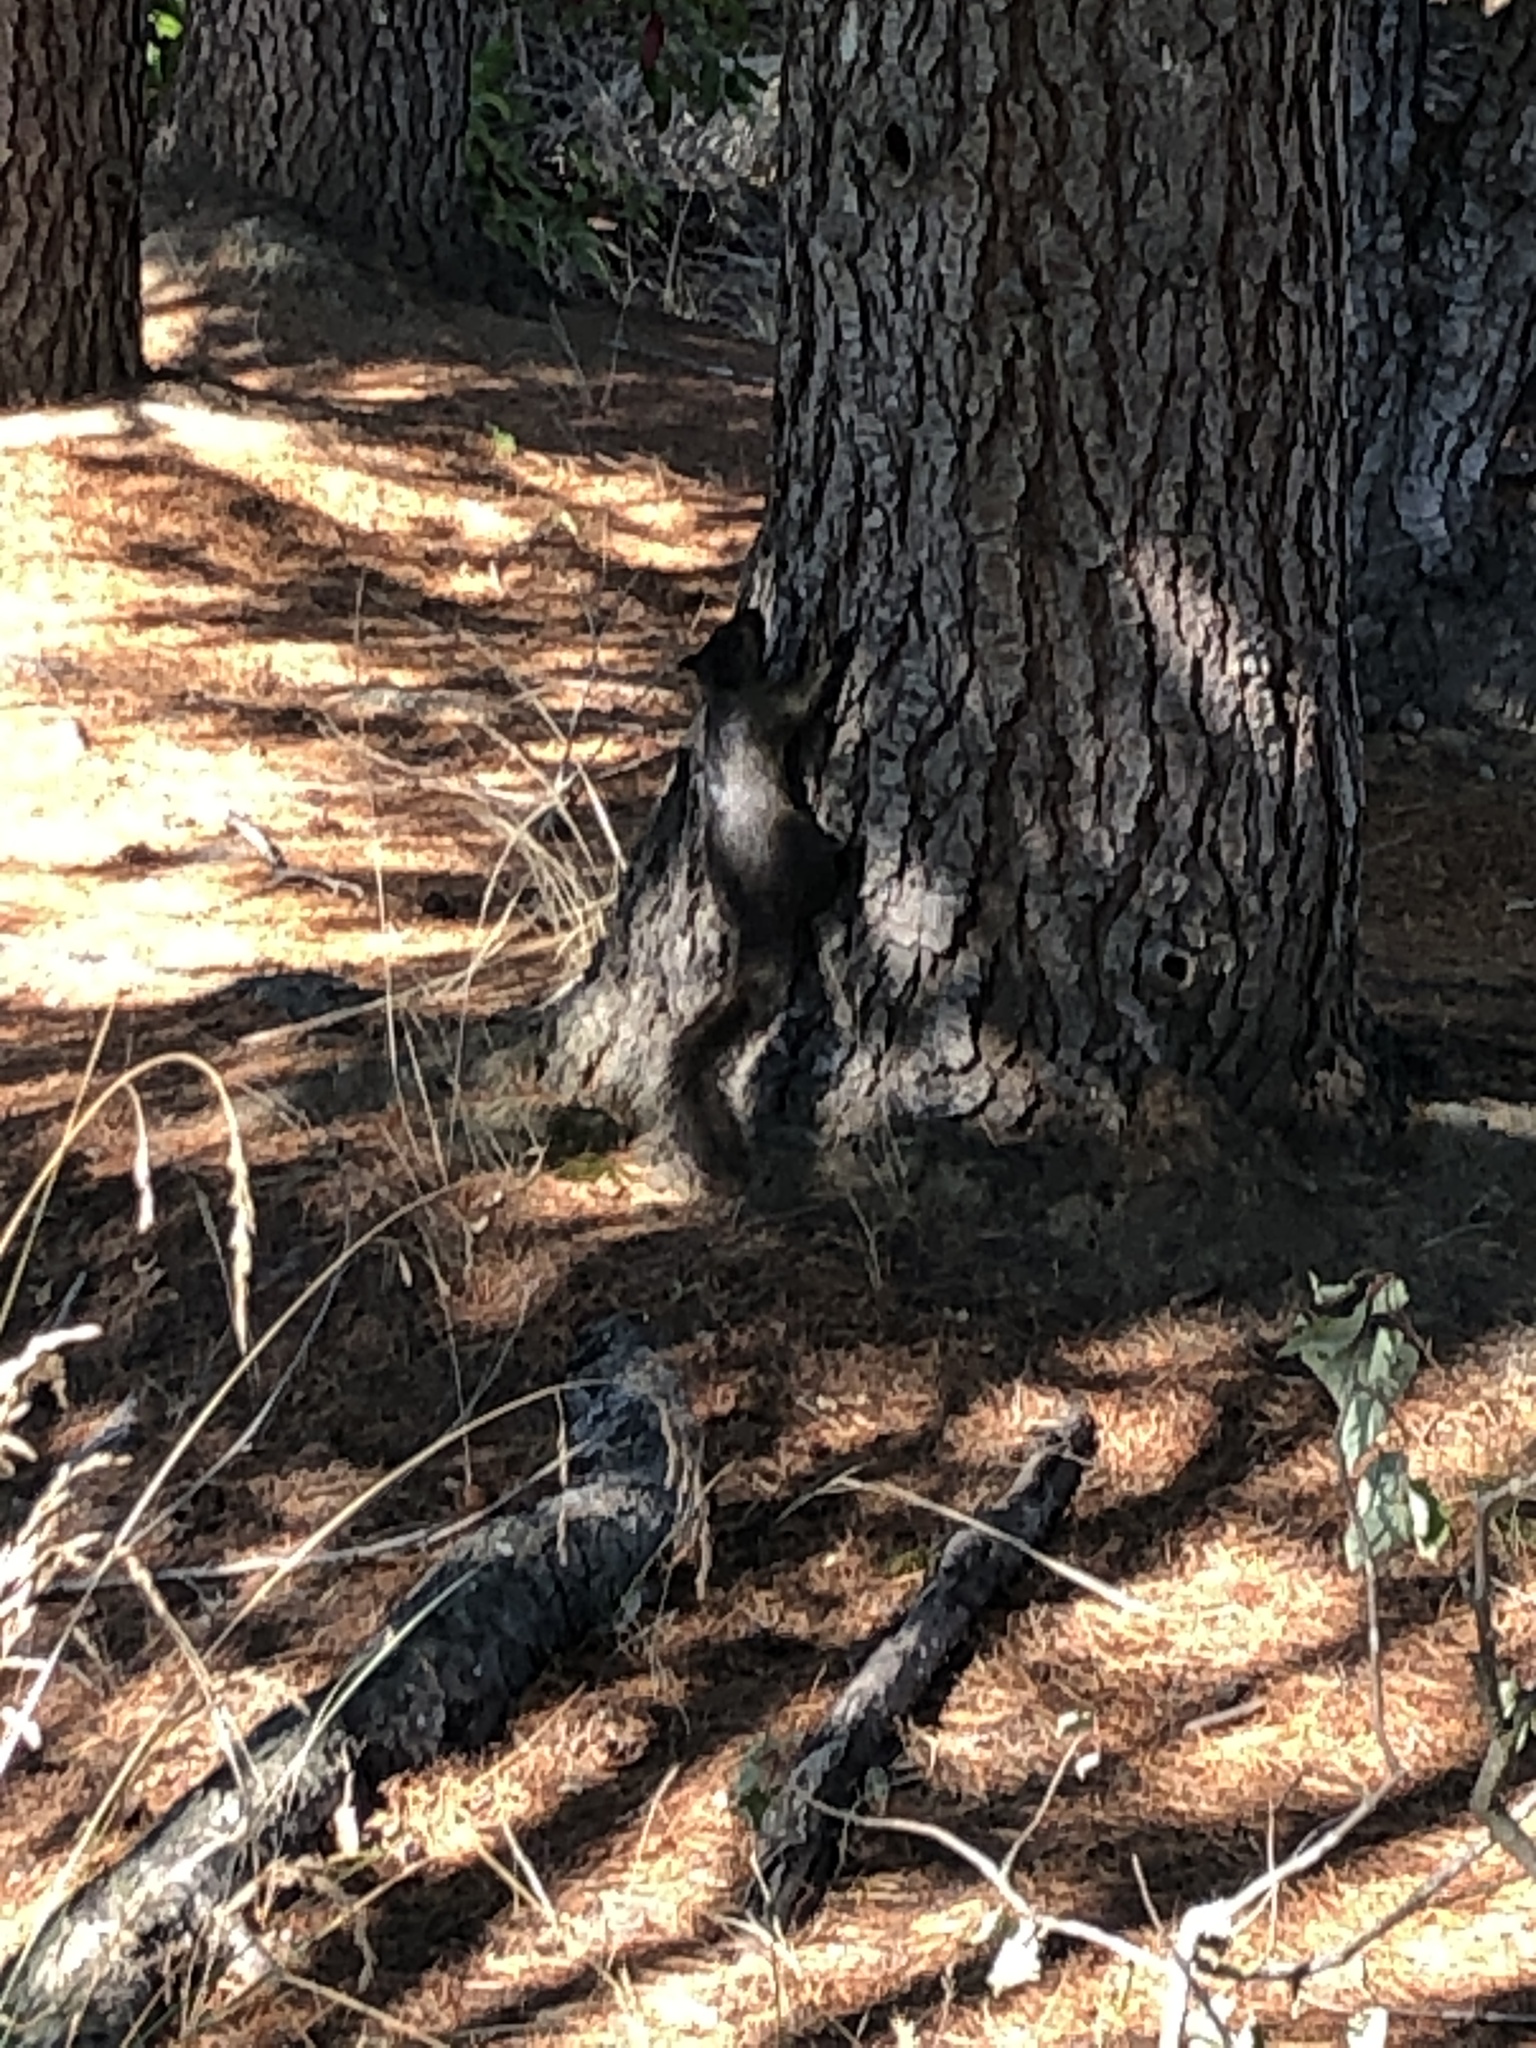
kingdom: Animalia
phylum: Chordata
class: Mammalia
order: Rodentia
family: Sciuridae
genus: Sciurus
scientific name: Sciurus carolinensis
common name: Eastern gray squirrel
